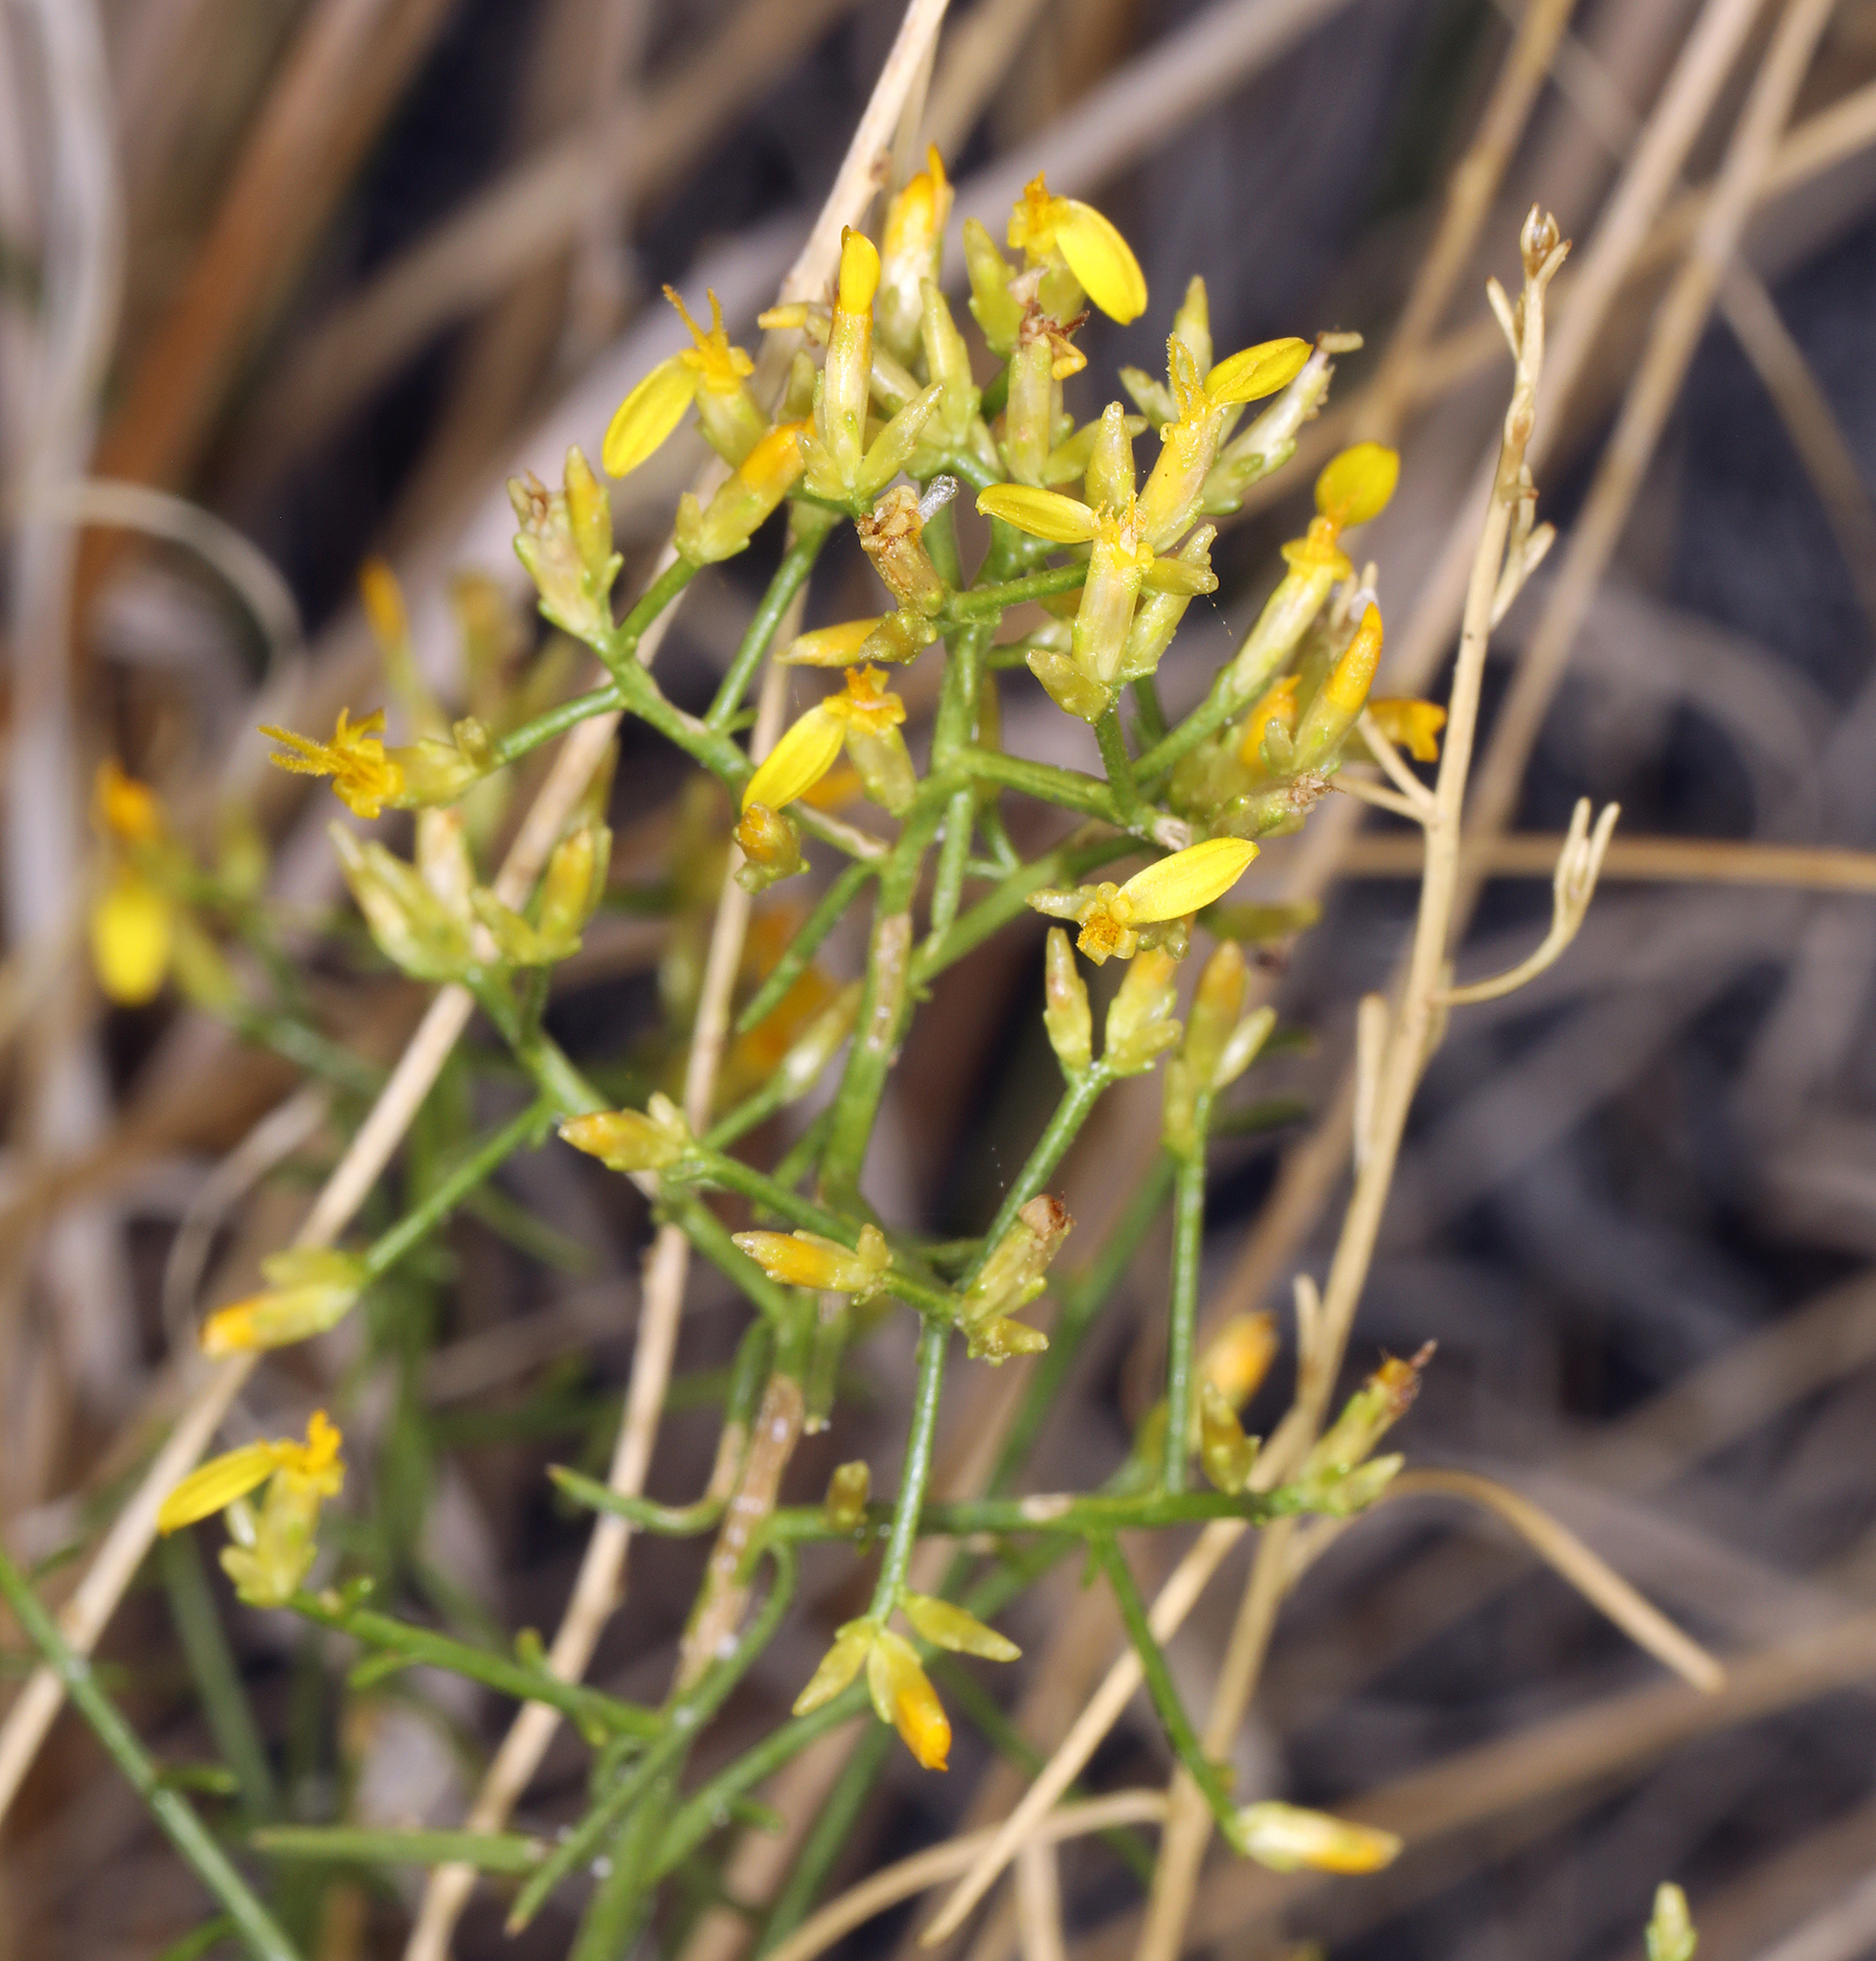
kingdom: Plantae
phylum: Tracheophyta
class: Magnoliopsida
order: Asterales
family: Asteraceae
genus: Gutierrezia
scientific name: Gutierrezia microcephala
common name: Thread snakeweed
